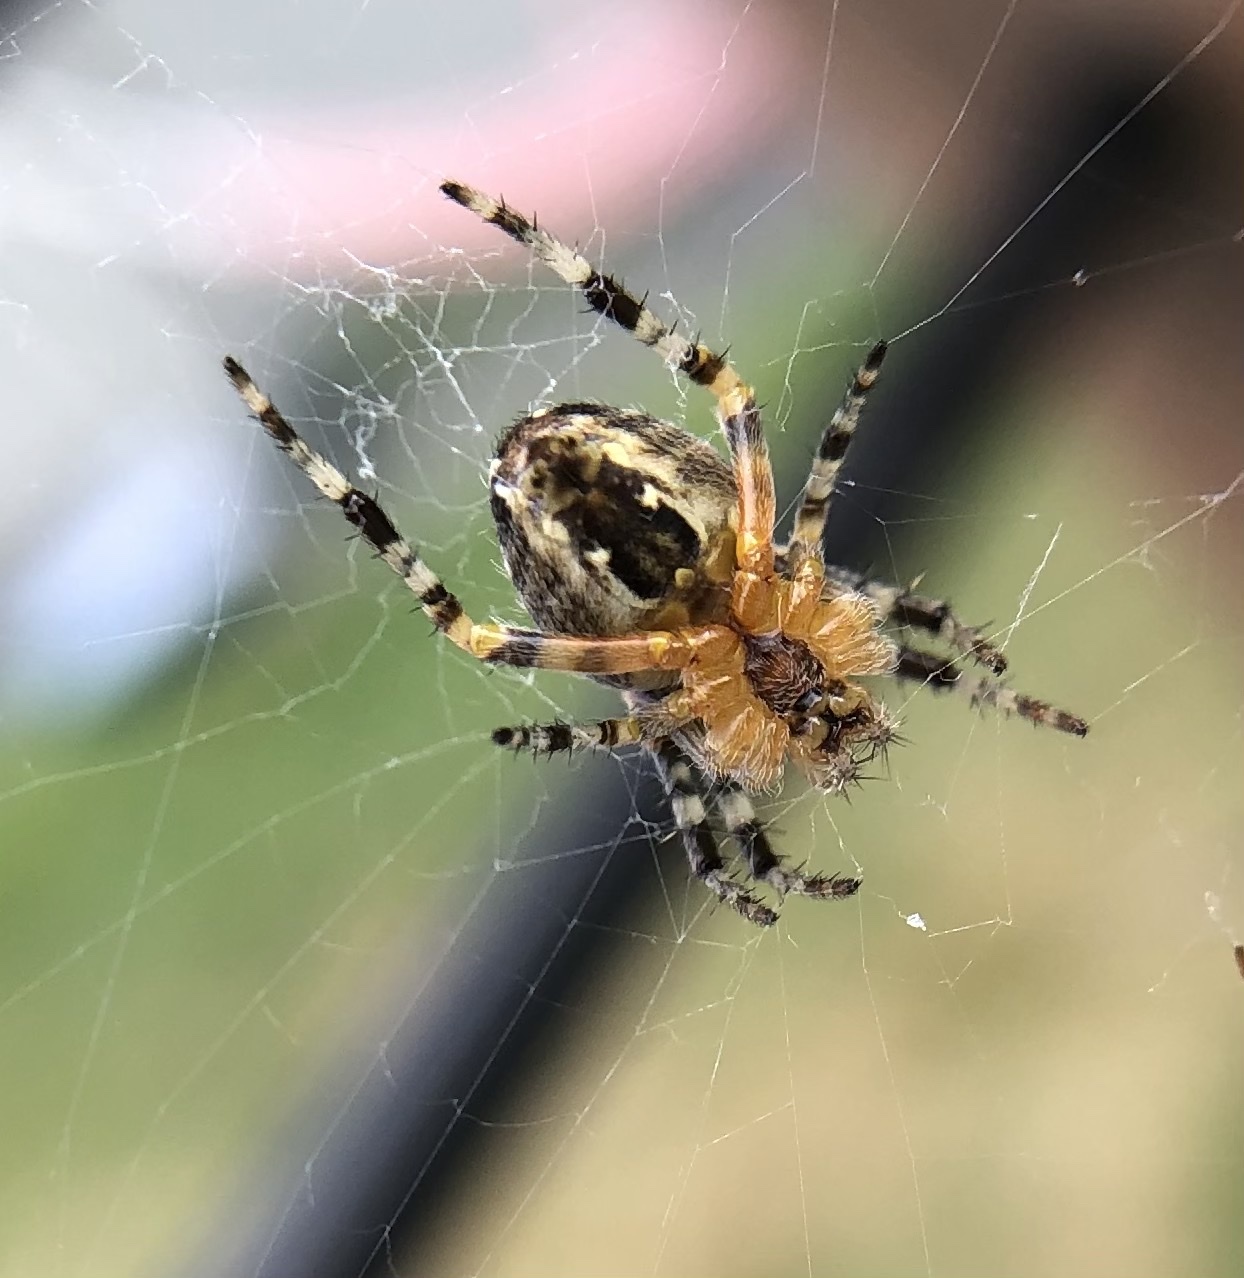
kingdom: Animalia
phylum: Arthropoda
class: Arachnida
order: Araneae
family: Araneidae
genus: Araneus
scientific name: Araneus diadematus
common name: Cross orbweaver
